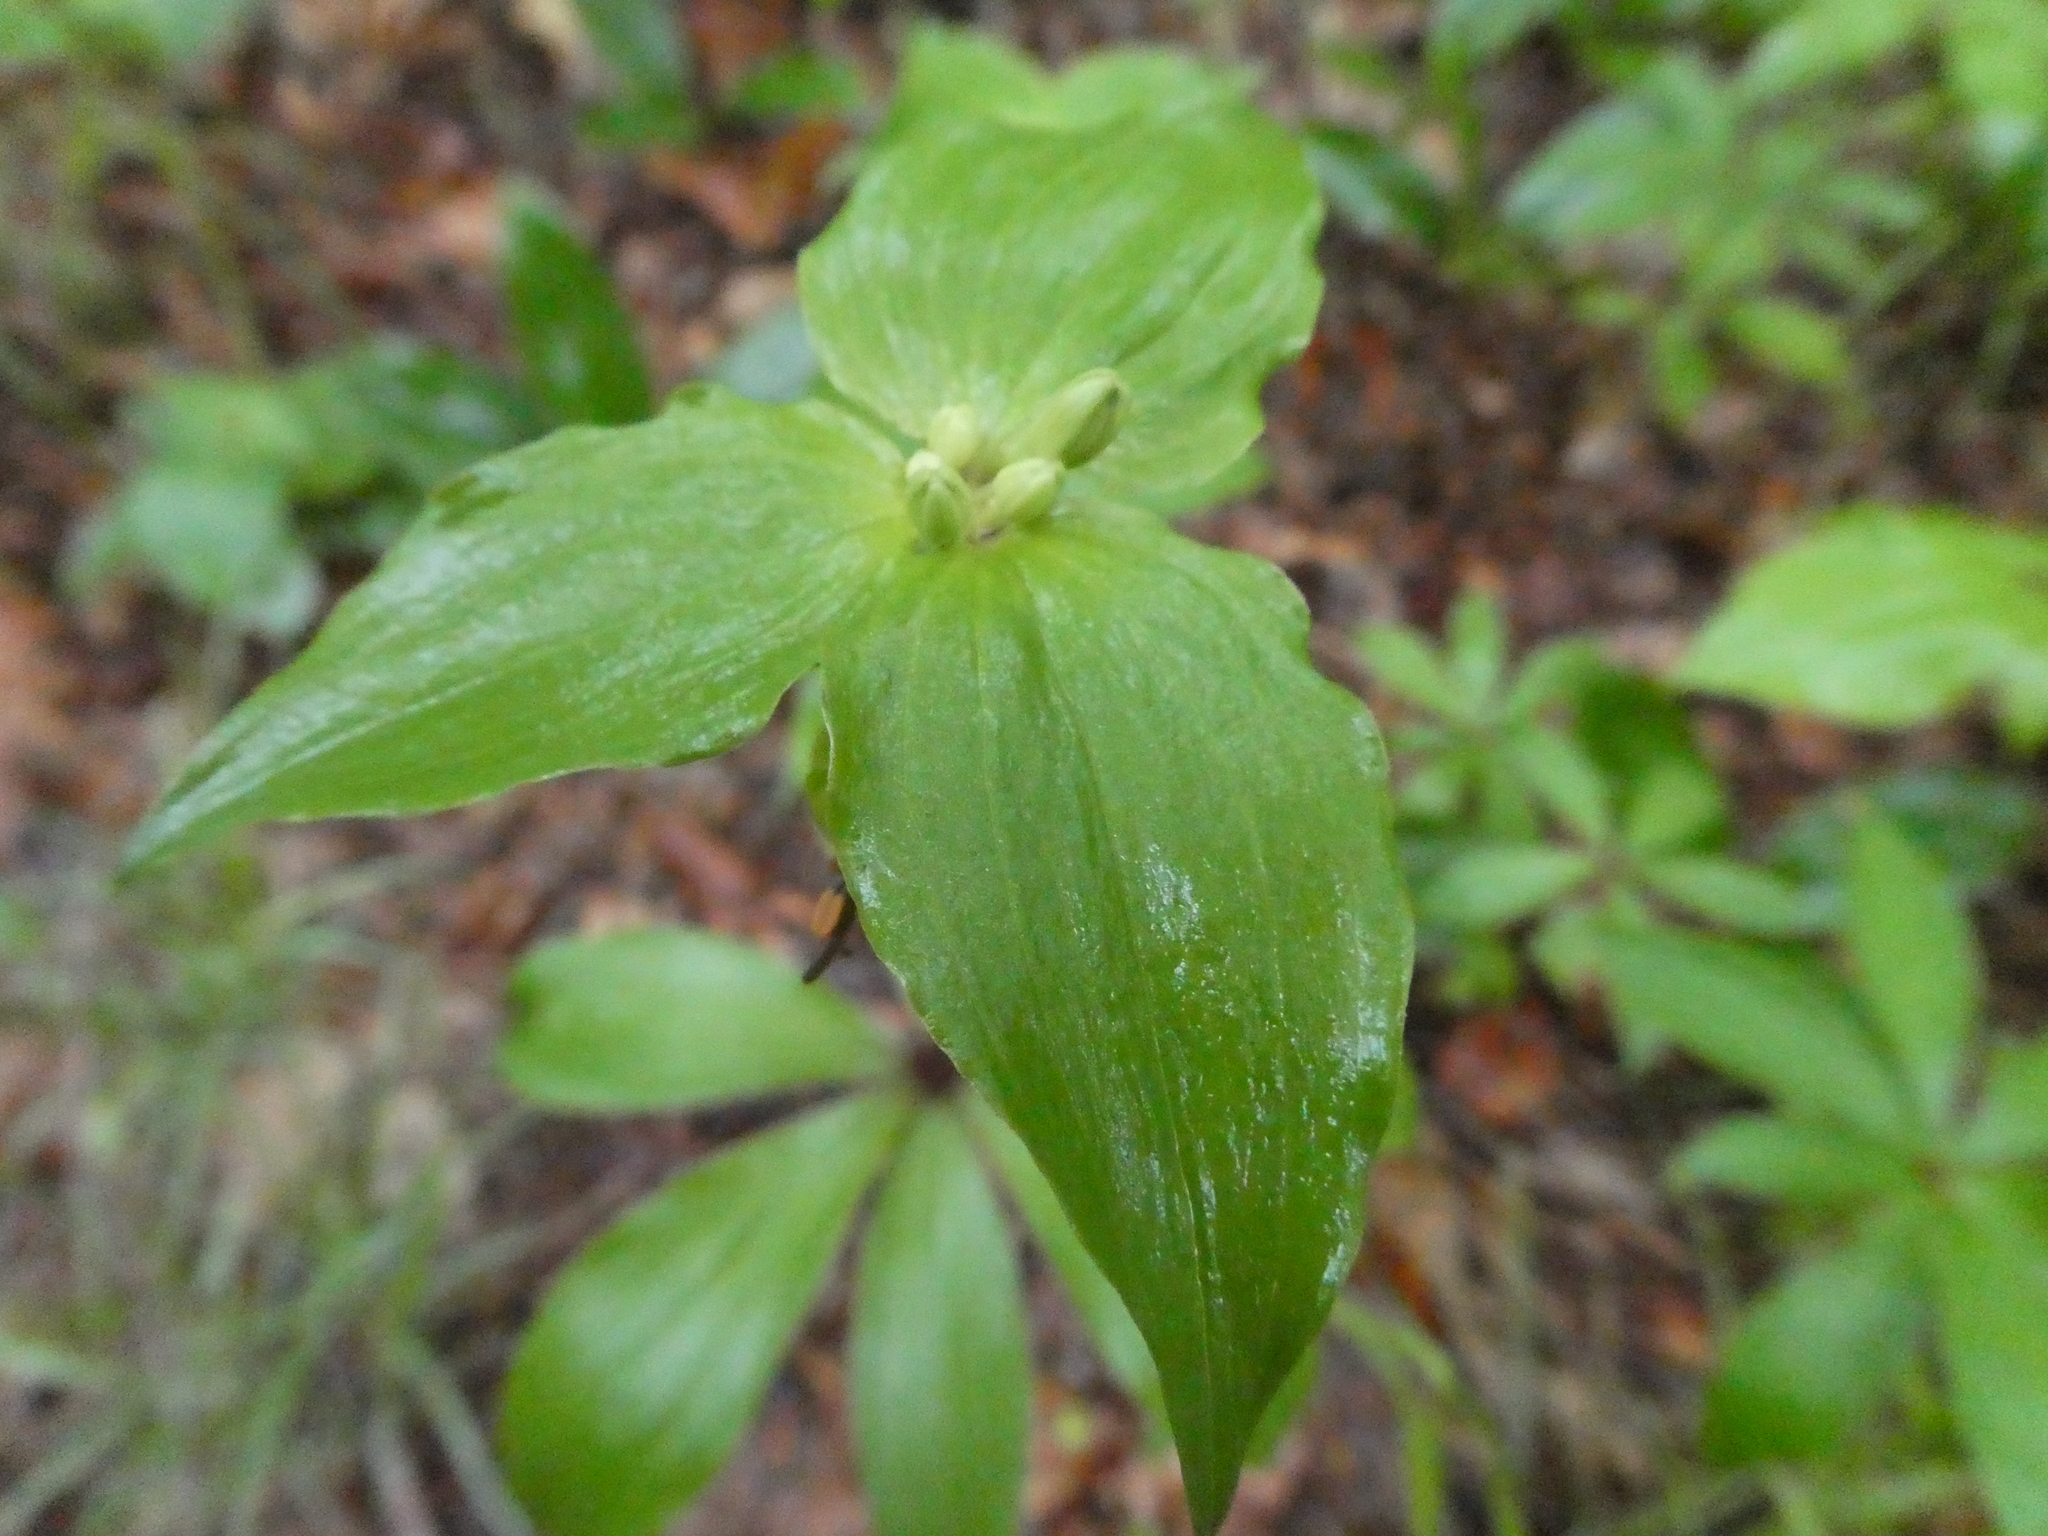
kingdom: Plantae
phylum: Tracheophyta
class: Liliopsida
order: Liliales
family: Liliaceae
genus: Medeola
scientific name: Medeola virginiana
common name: Indian cucumber-root
